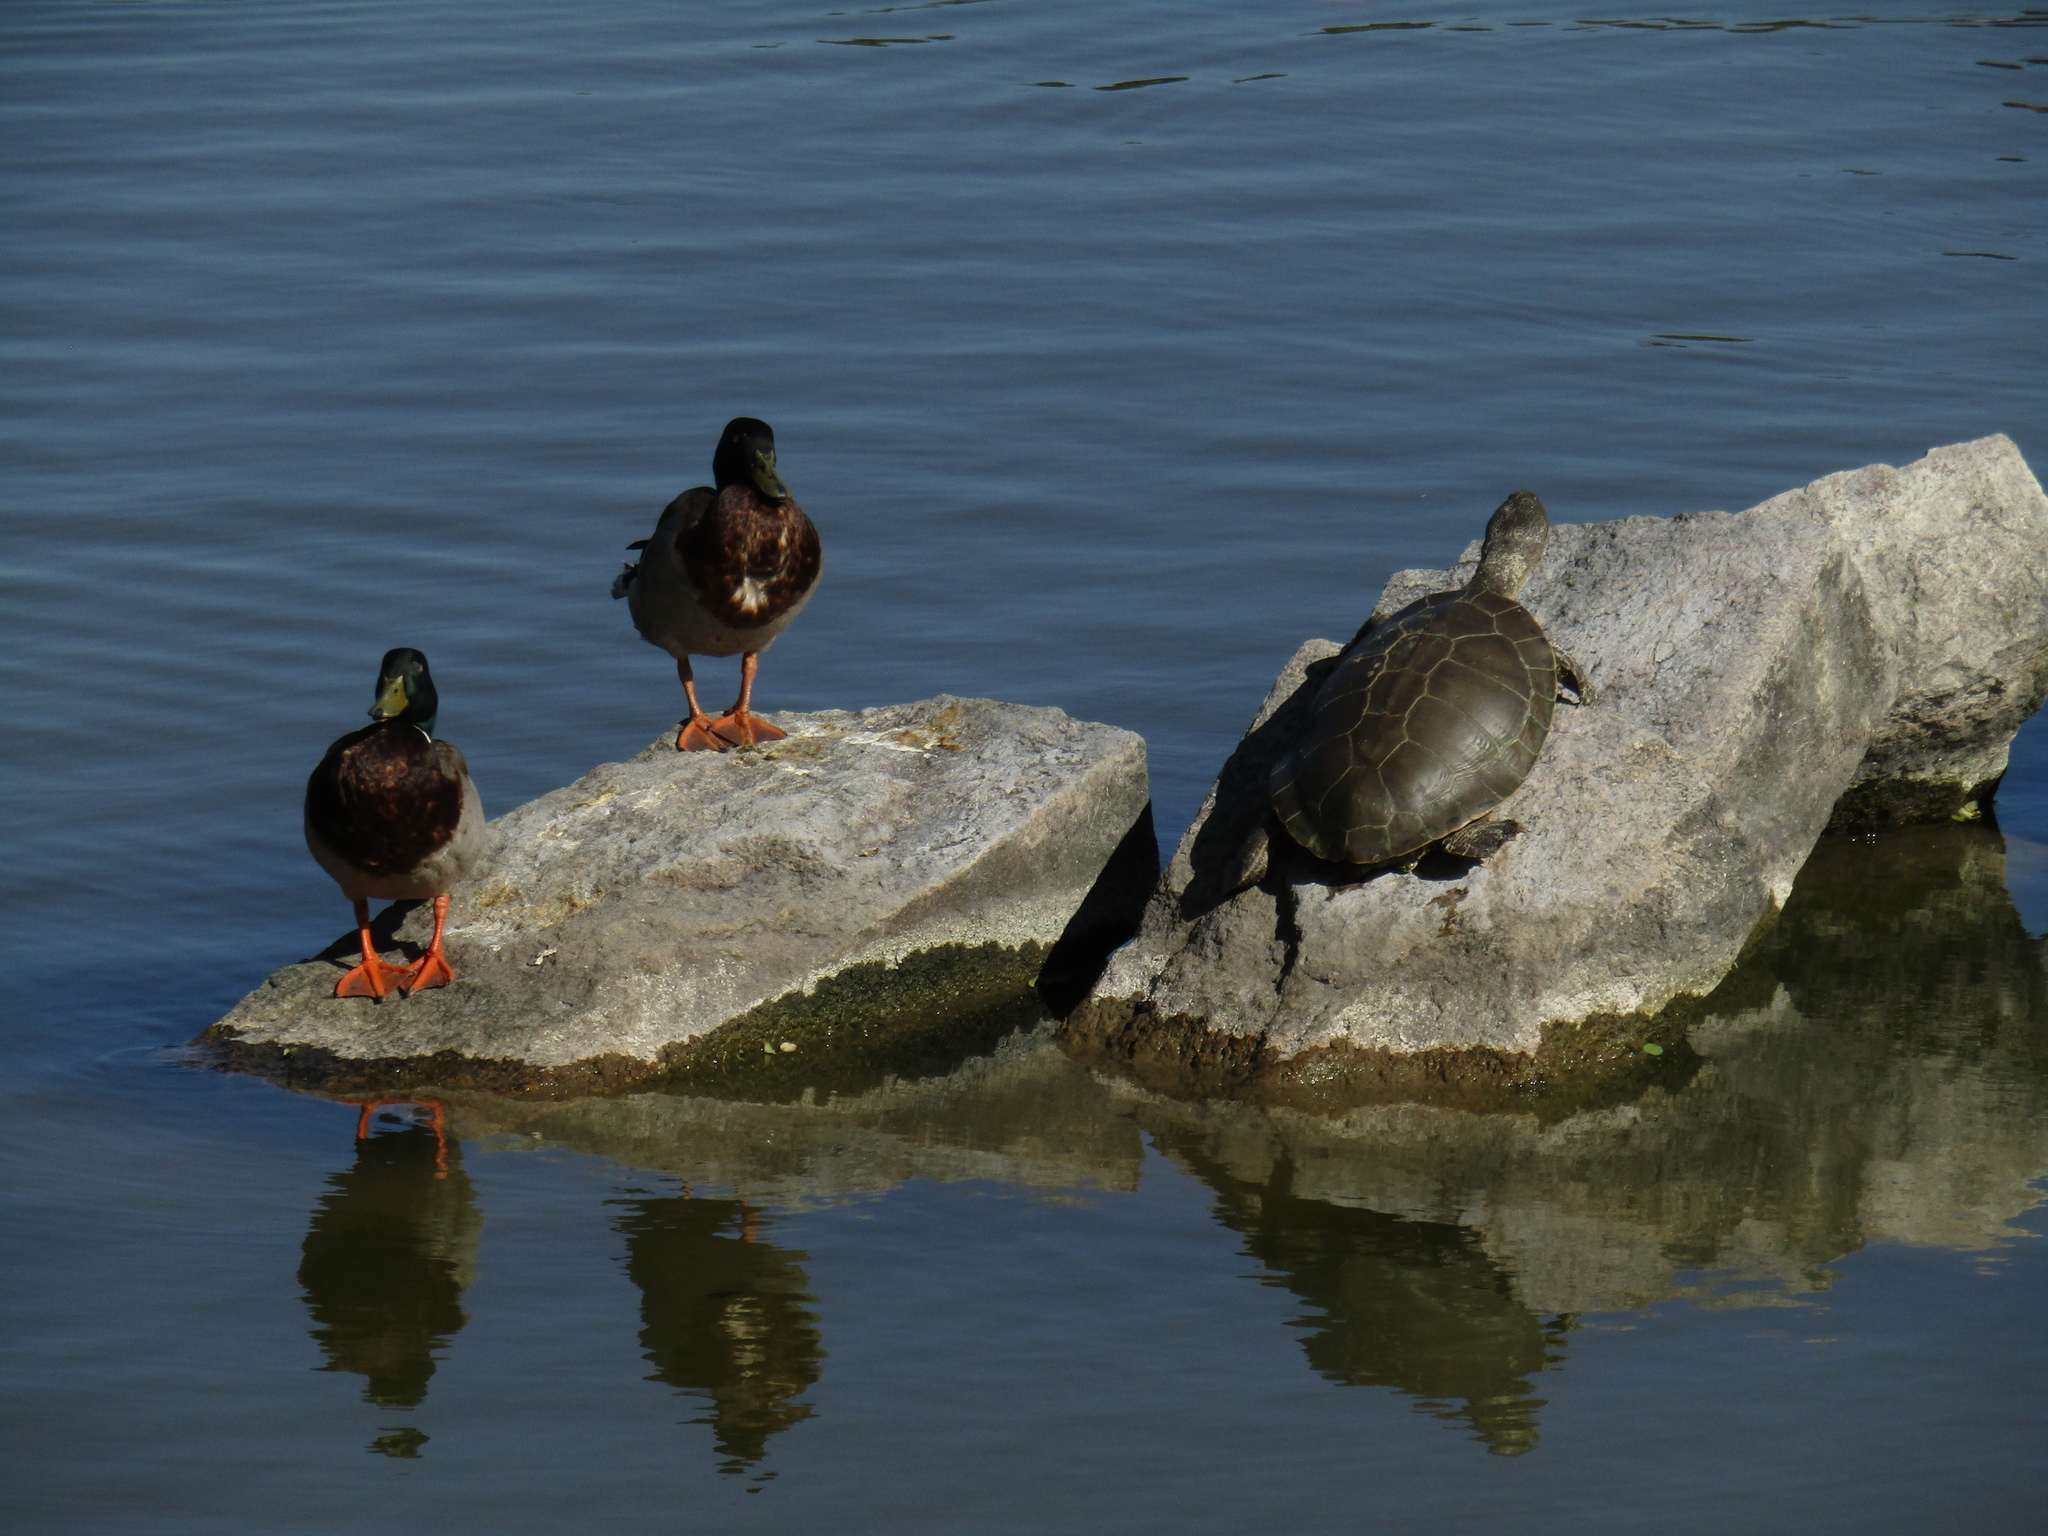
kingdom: Animalia
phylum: Chordata
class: Aves
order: Anseriformes
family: Anatidae
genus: Anas
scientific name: Anas platyrhynchos
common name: Mallard
